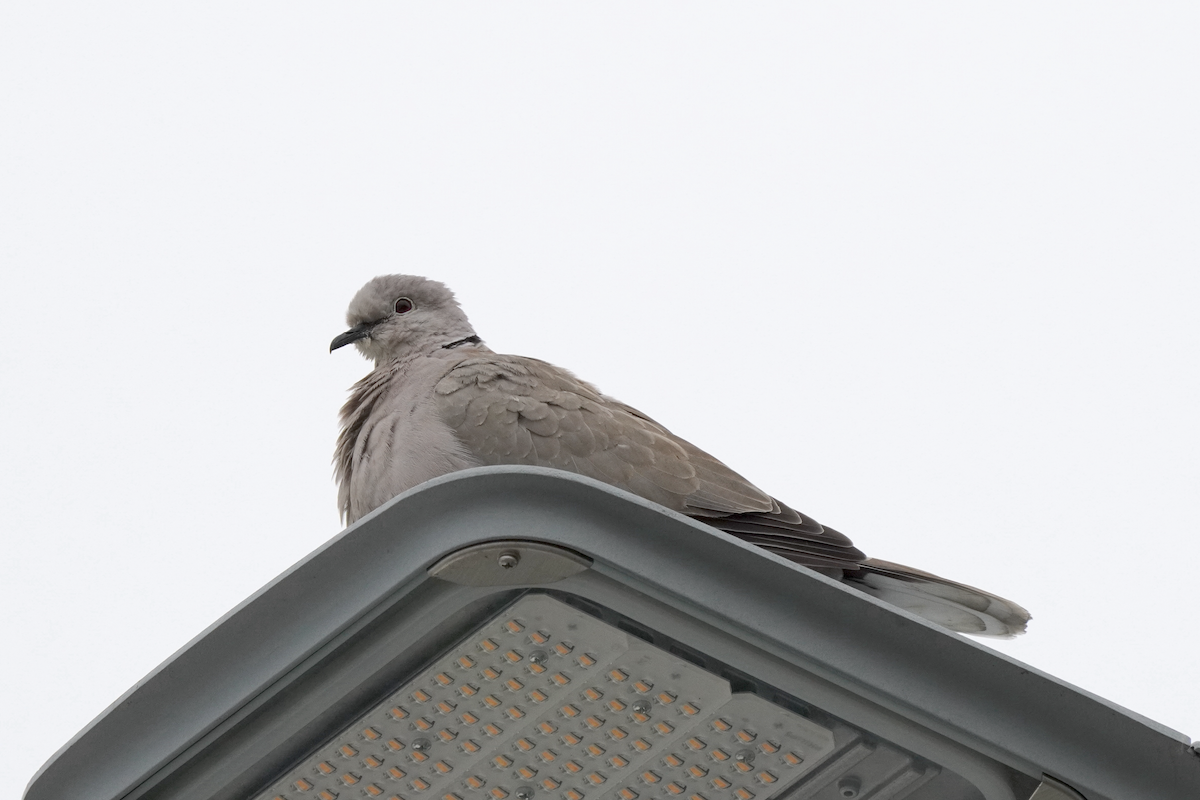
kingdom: Animalia
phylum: Chordata
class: Aves
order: Columbiformes
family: Columbidae
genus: Streptopelia
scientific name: Streptopelia decaocto
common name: Eurasian collared dove
